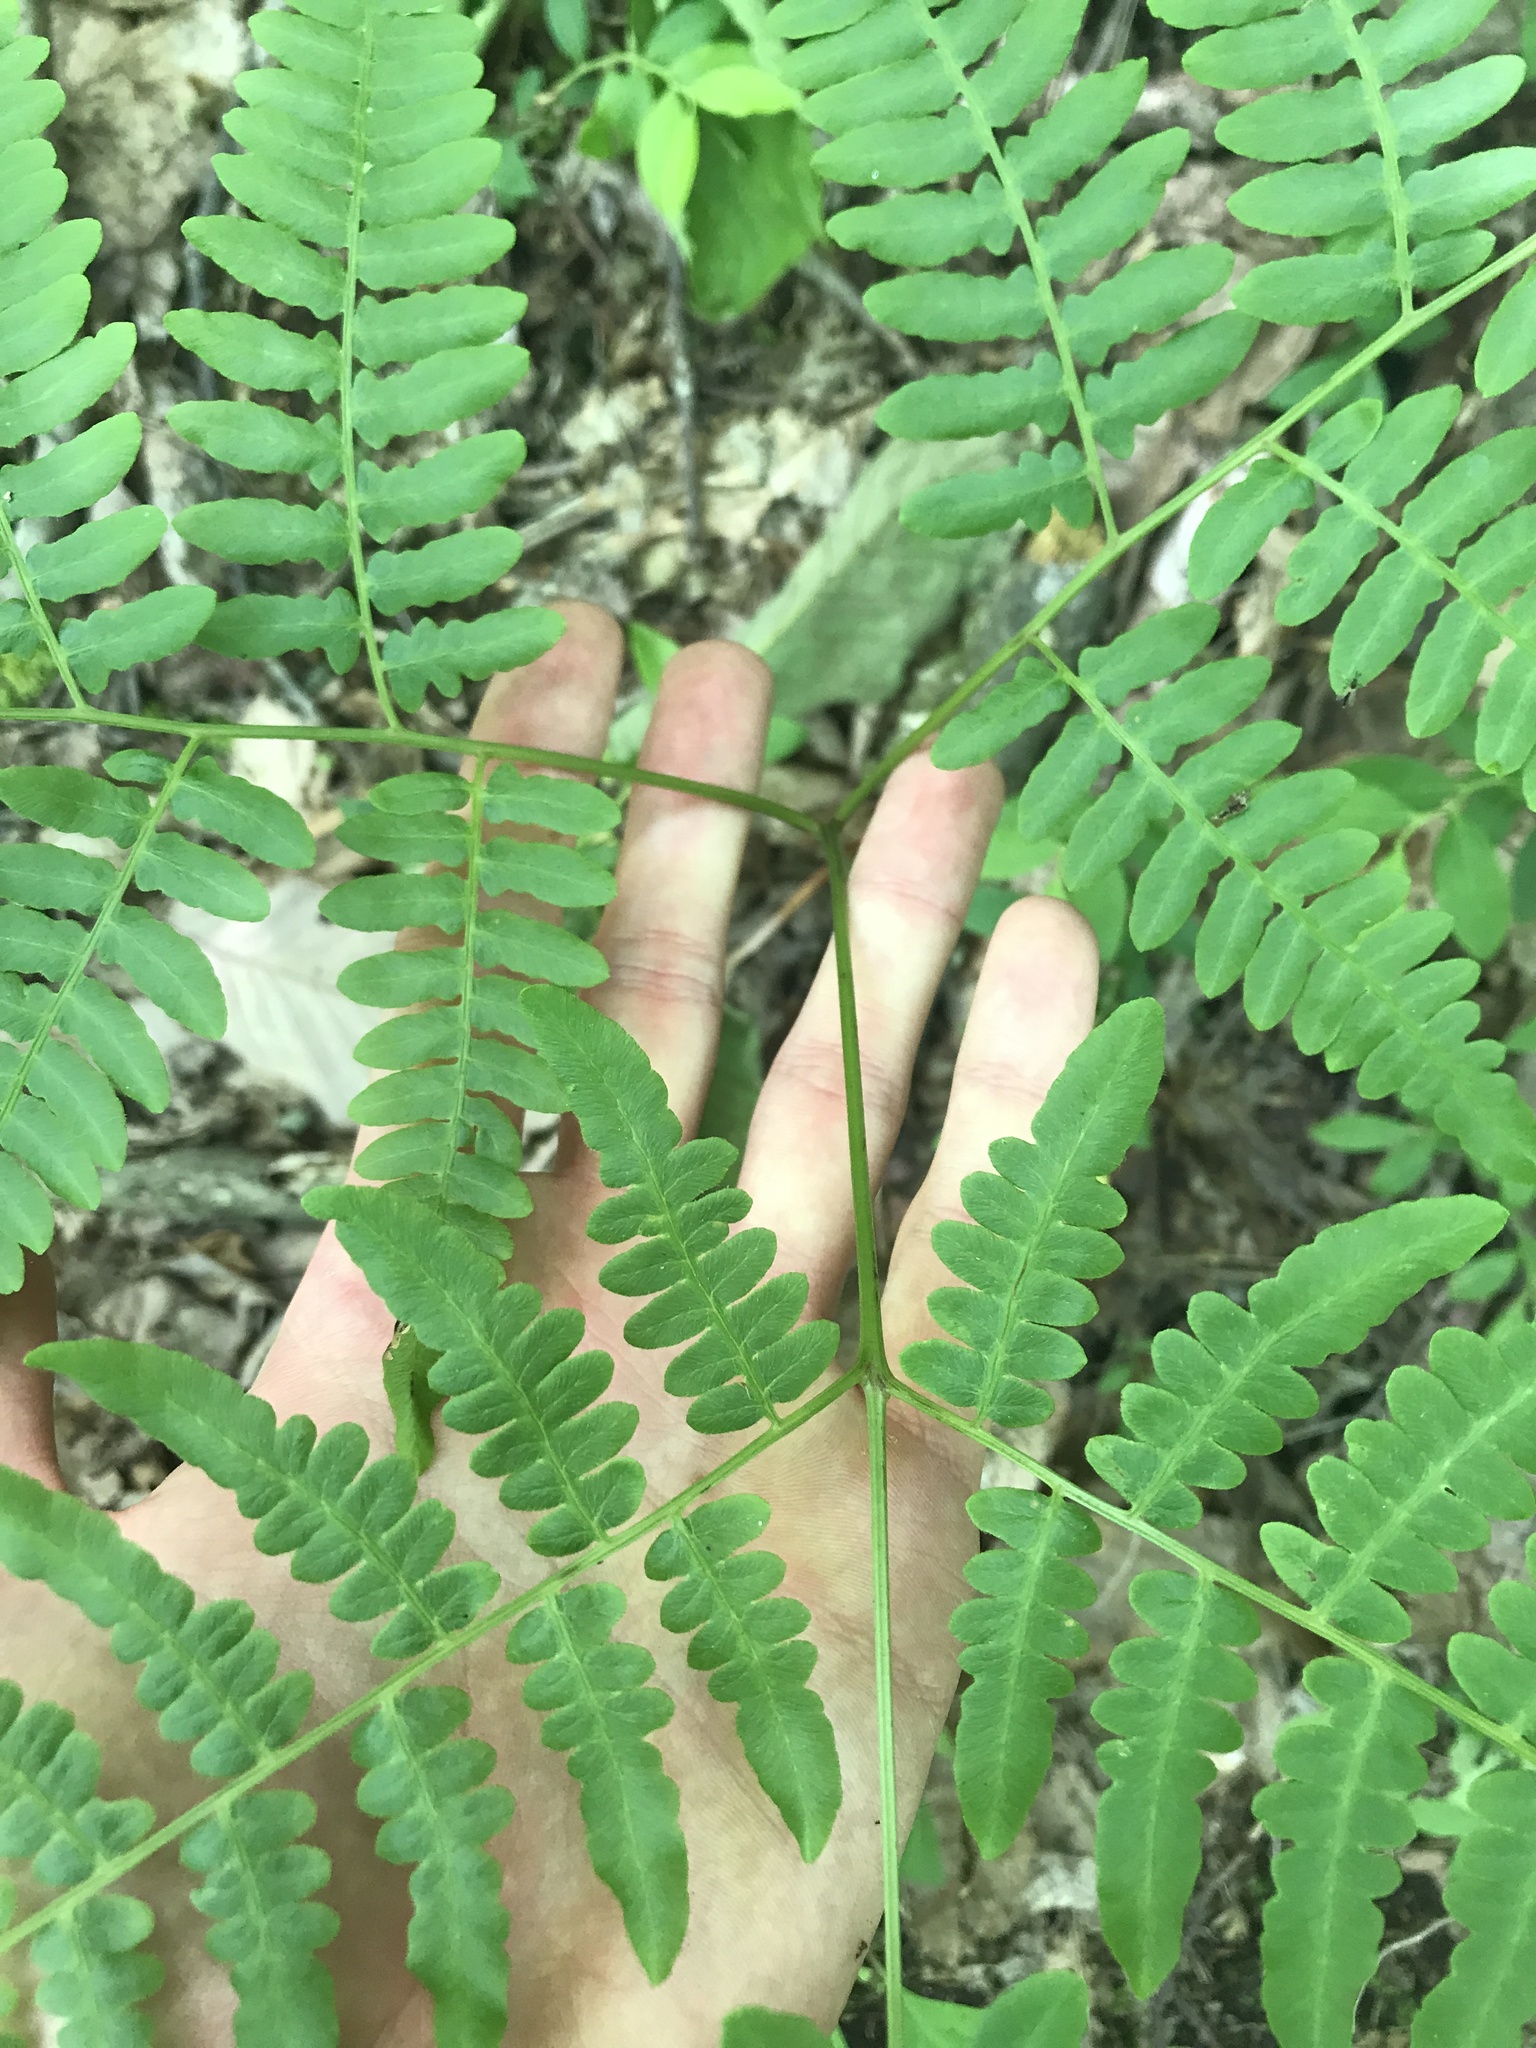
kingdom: Plantae
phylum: Tracheophyta
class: Polypodiopsida
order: Polypodiales
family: Dennstaedtiaceae
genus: Pteridium
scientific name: Pteridium aquilinum
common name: Bracken
